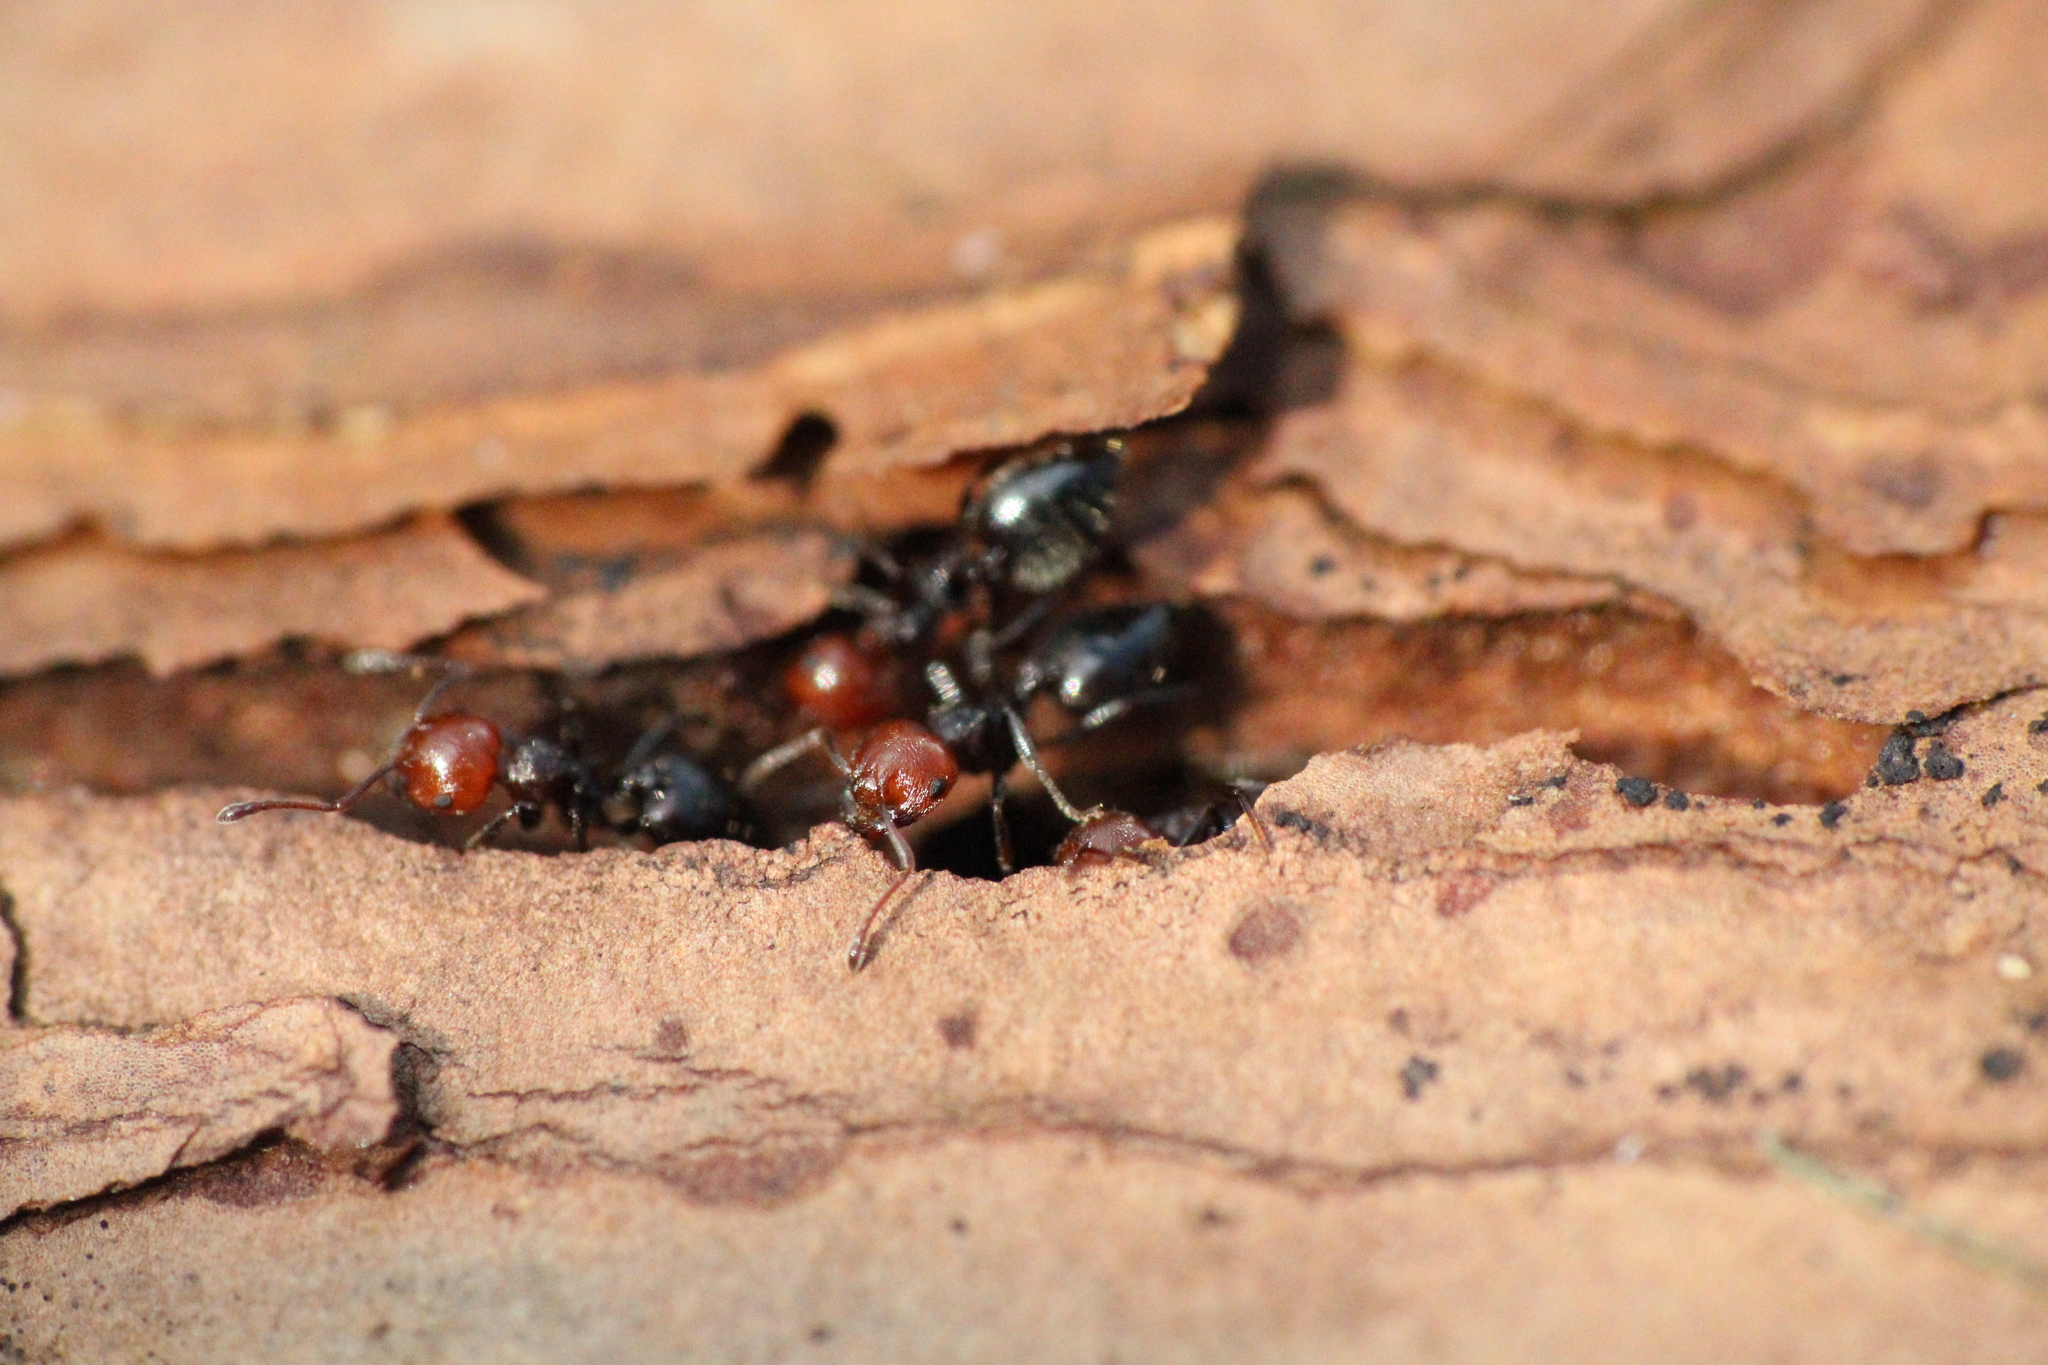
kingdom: Animalia
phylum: Arthropoda
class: Insecta
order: Hymenoptera
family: Formicidae
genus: Crematogaster
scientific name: Crematogaster scutellaris
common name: Fourmi du liège
